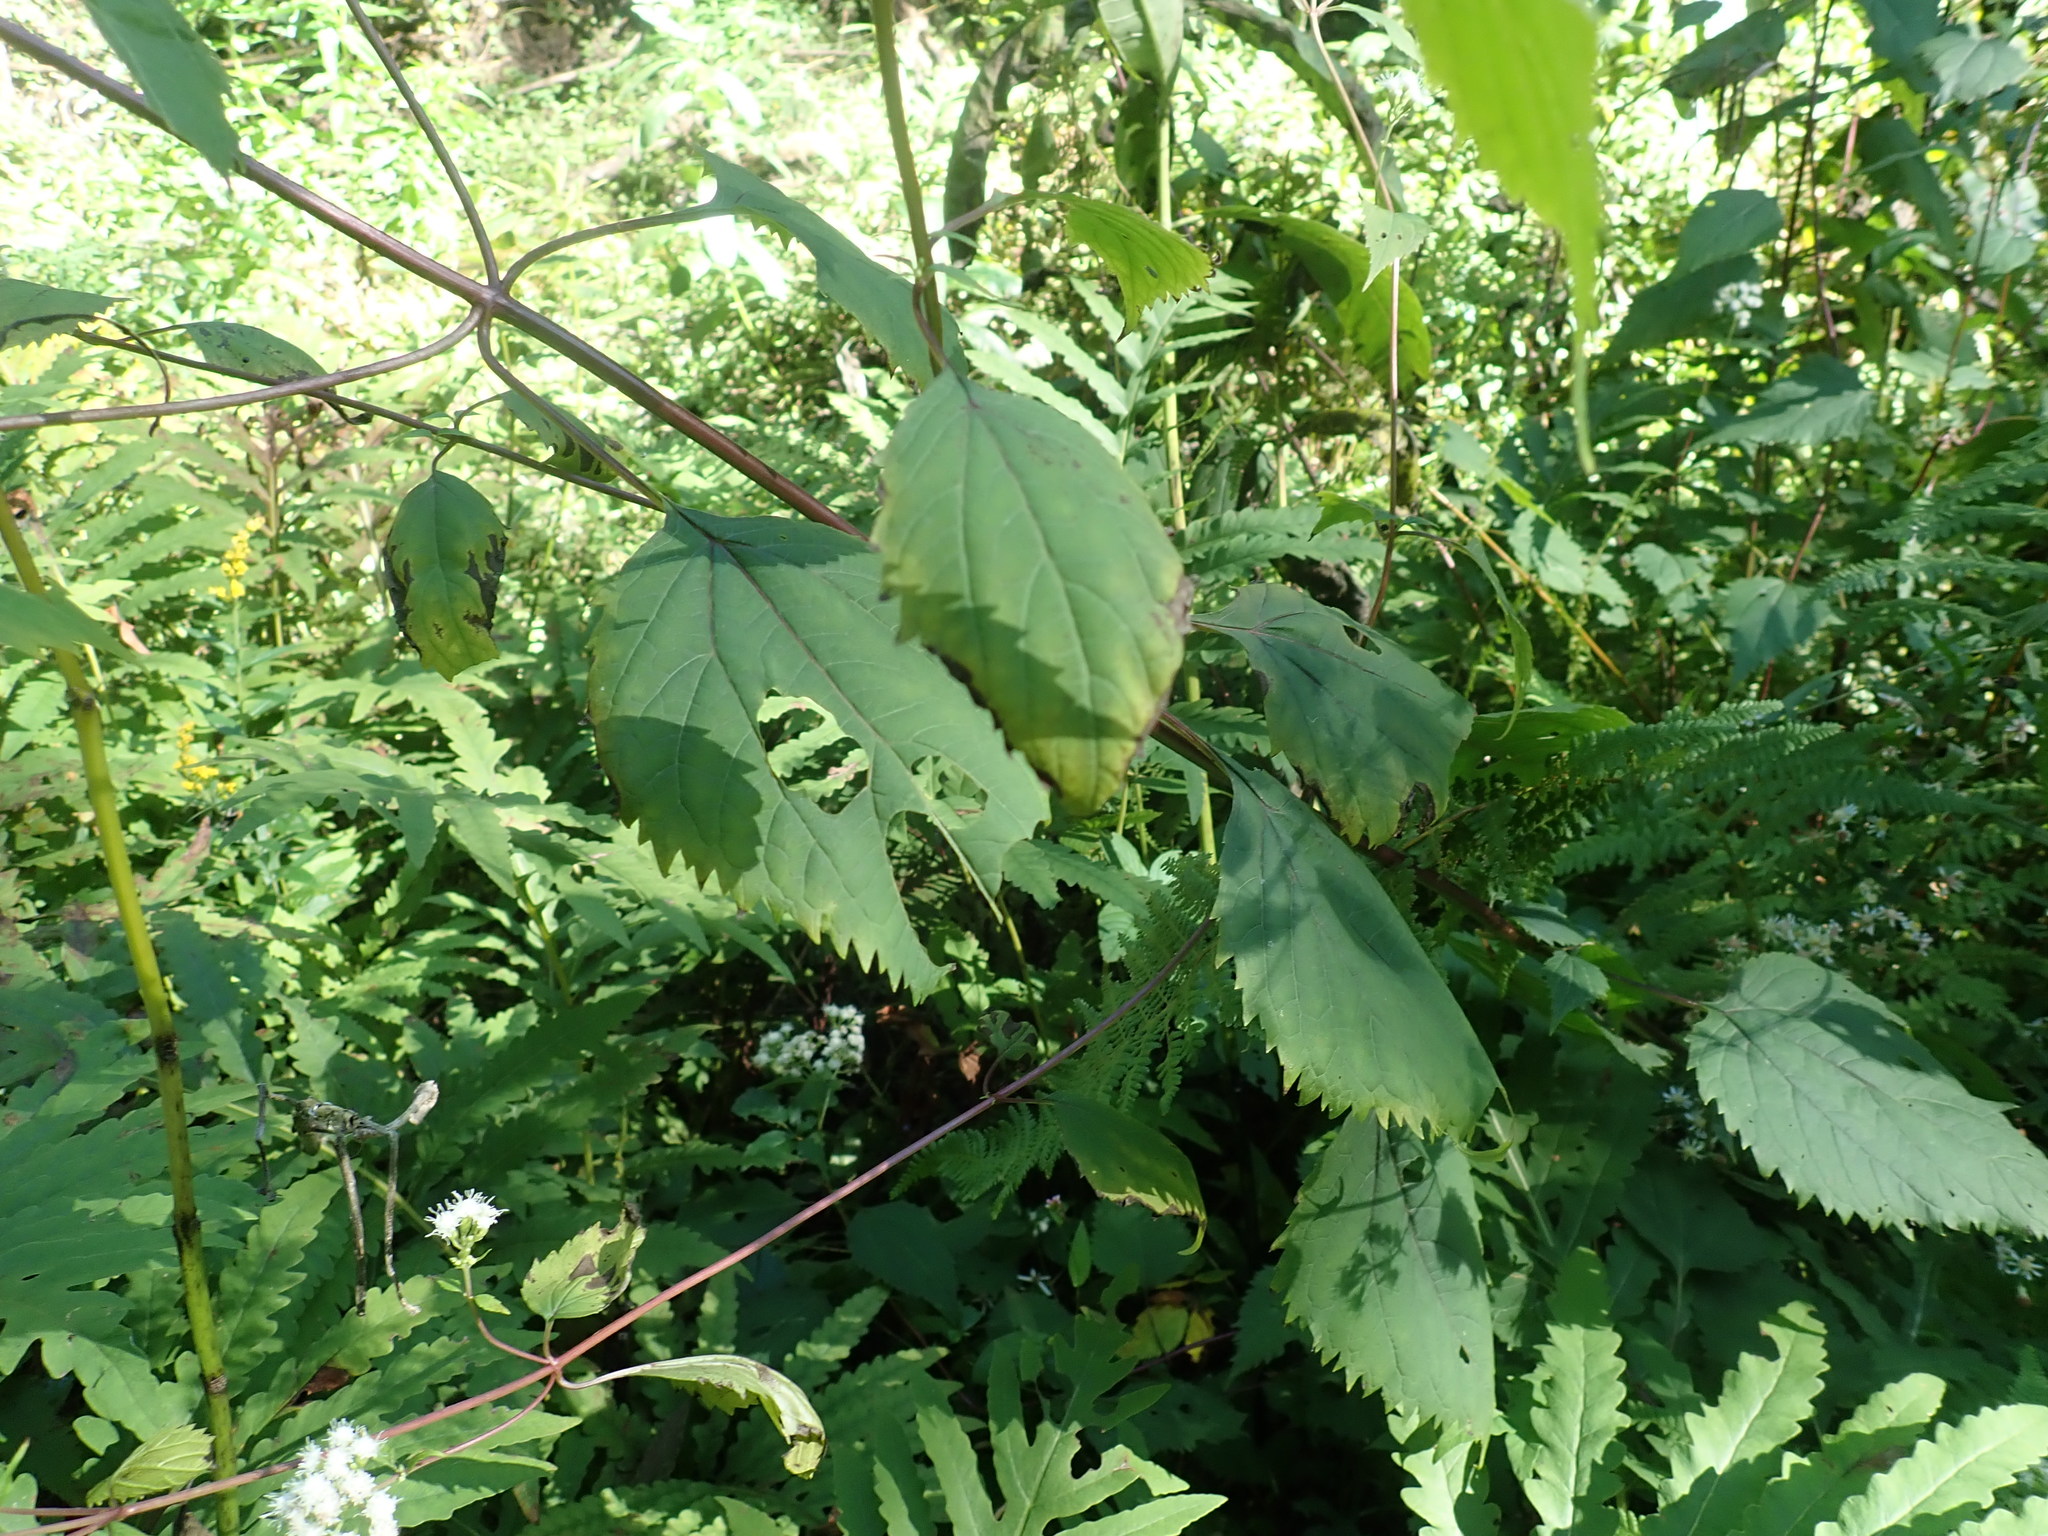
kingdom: Plantae
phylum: Tracheophyta
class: Magnoliopsida
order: Asterales
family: Asteraceae
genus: Ageratina
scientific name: Ageratina altissima
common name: White snakeroot
